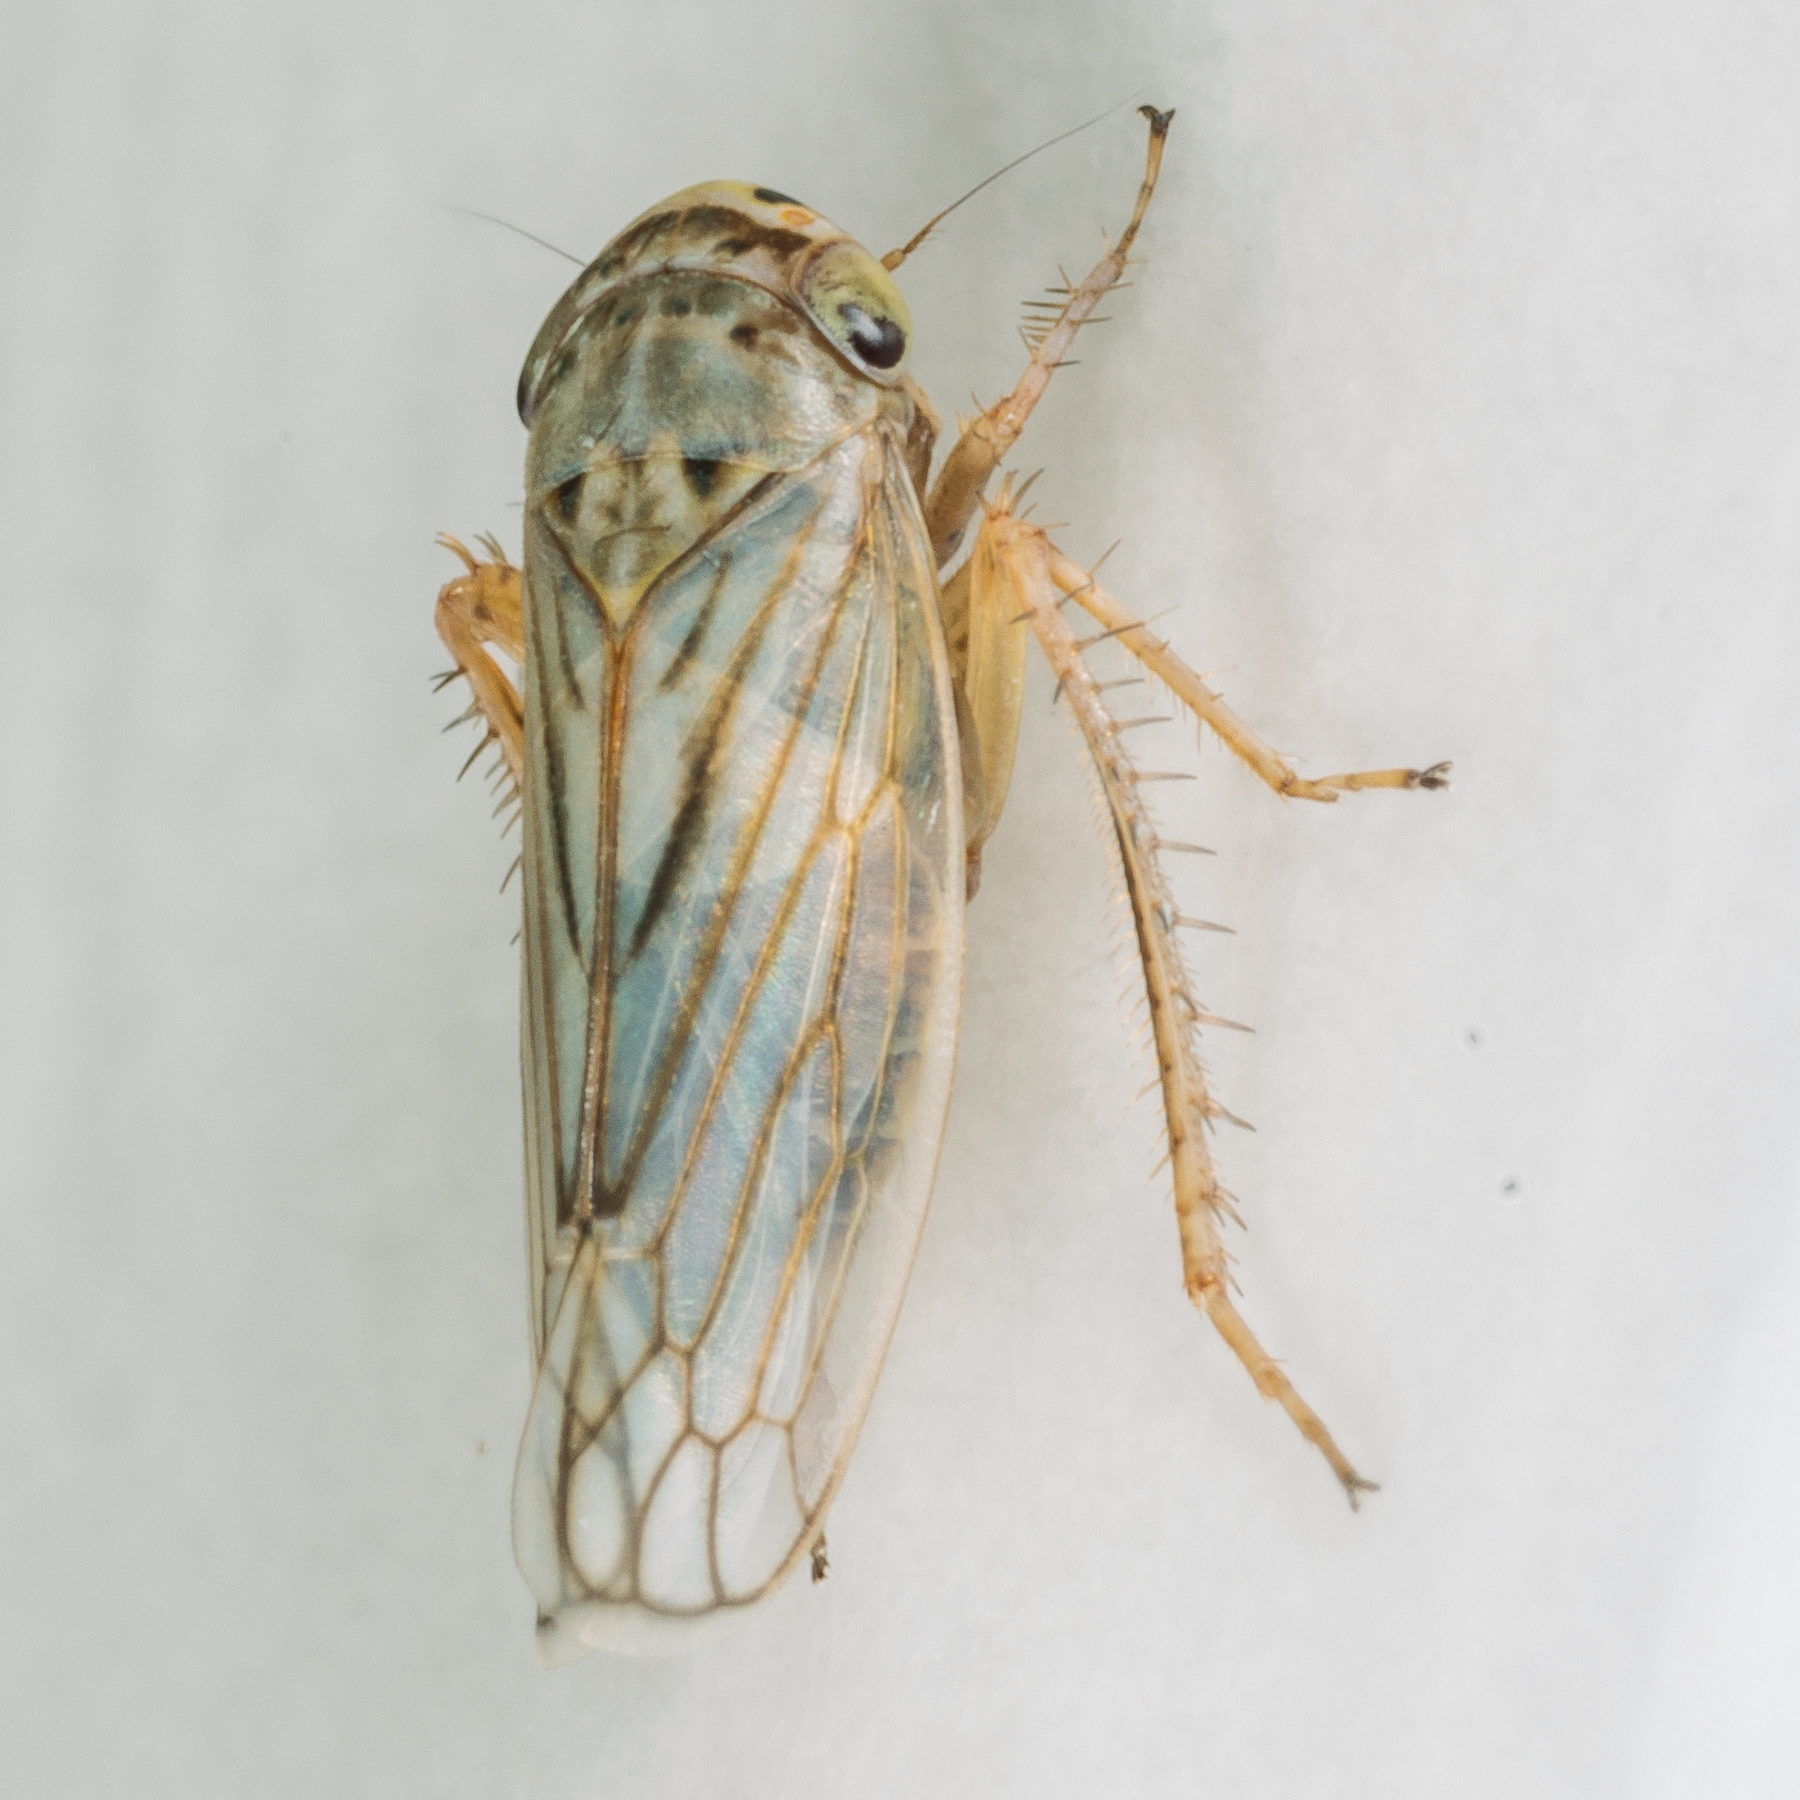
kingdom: Animalia
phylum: Arthropoda
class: Insecta
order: Hemiptera
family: Cicadellidae
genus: Exitianus
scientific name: Exitianus exitiosus
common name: Gray lawn leafhopper
